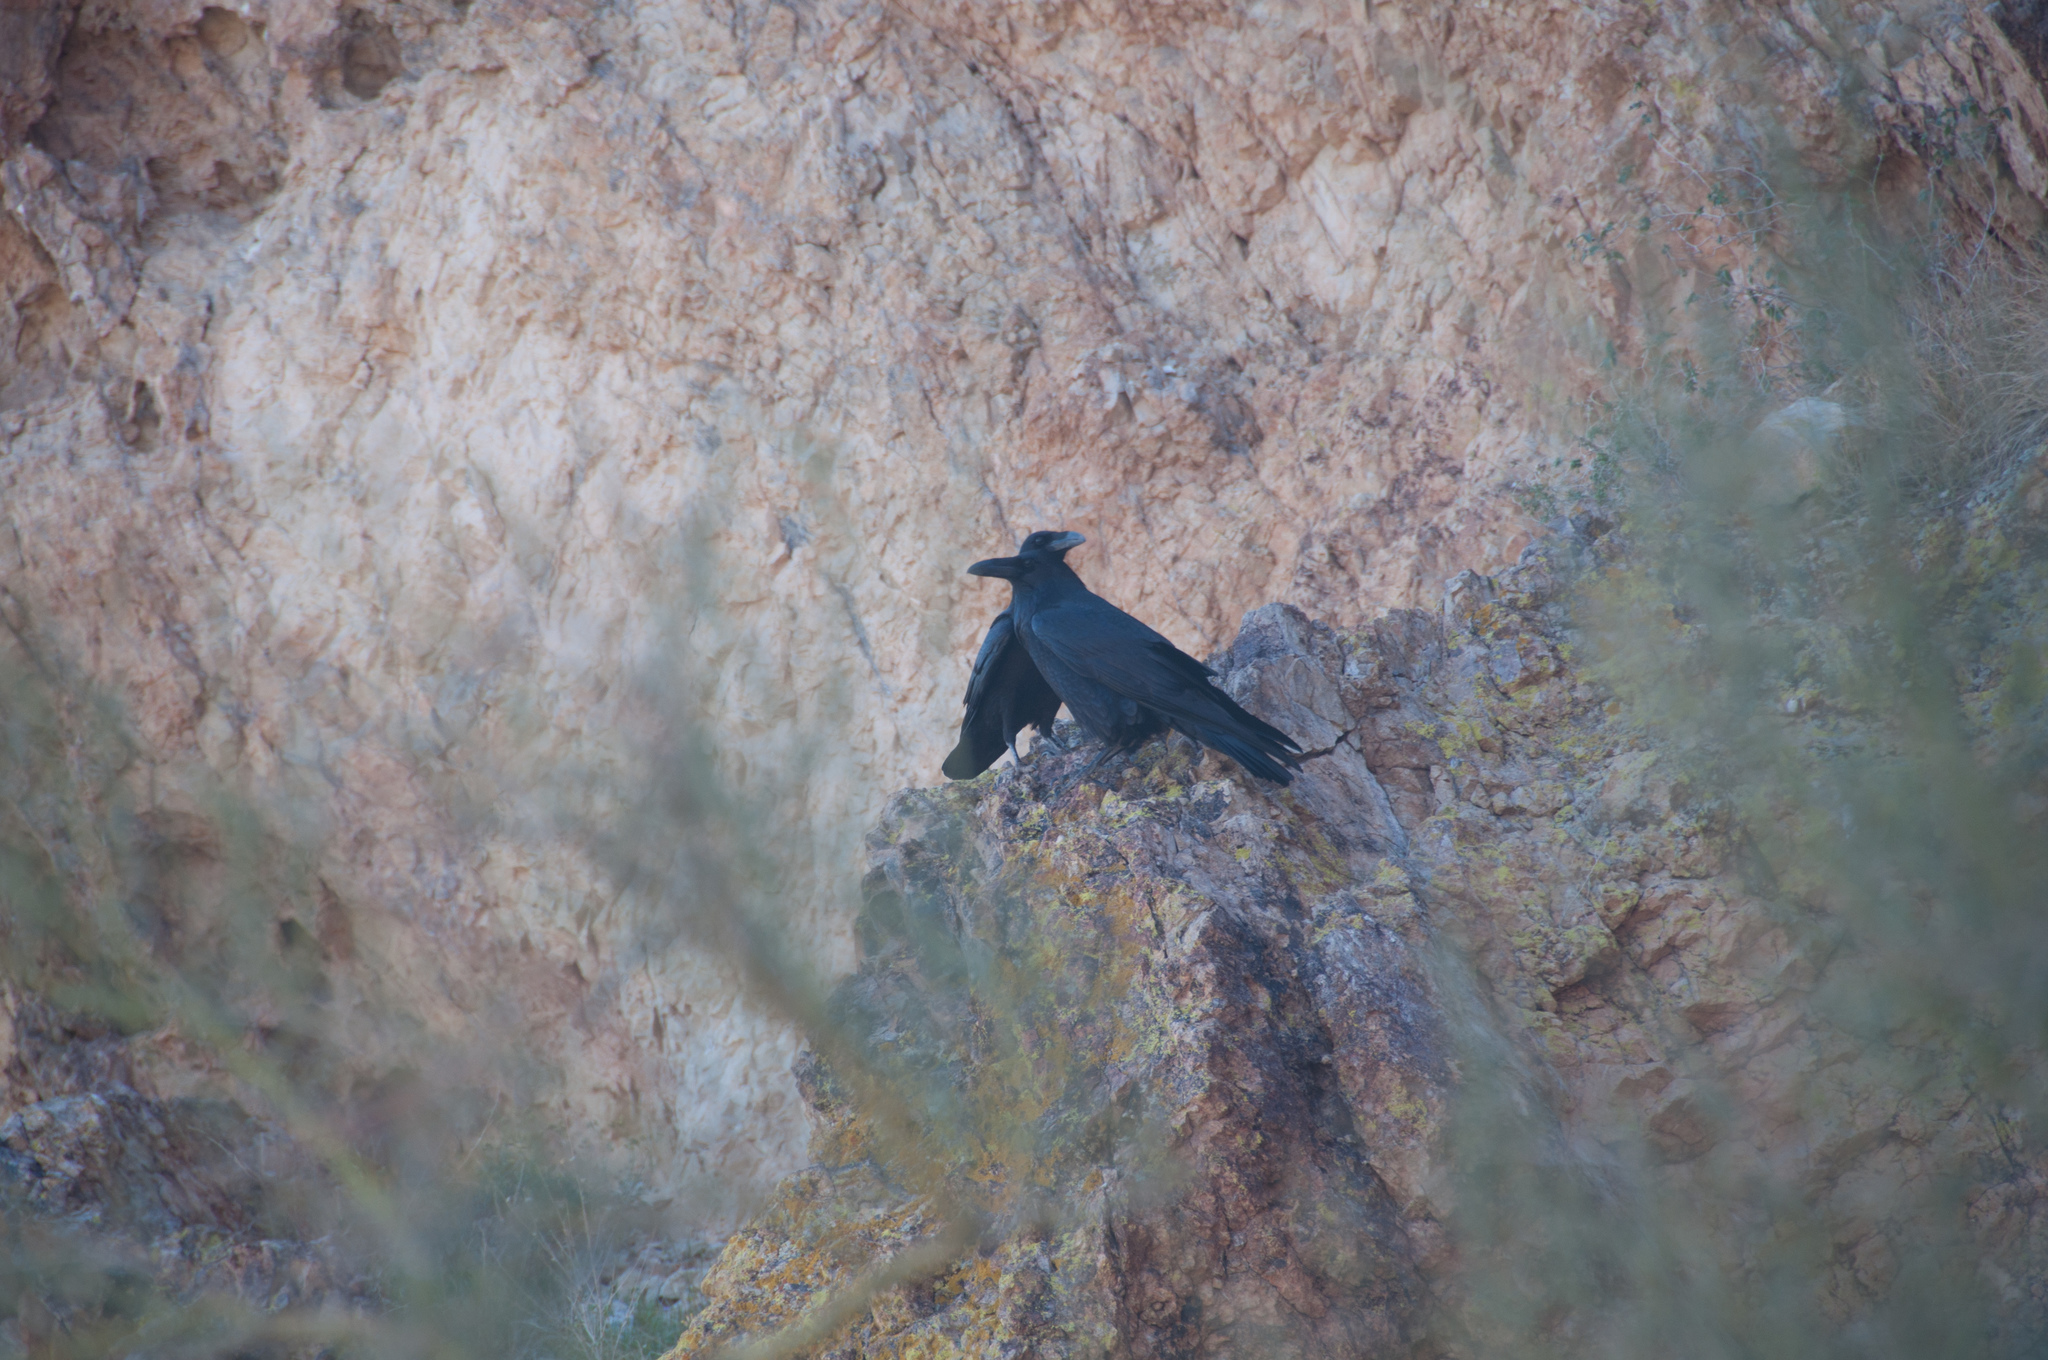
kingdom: Animalia
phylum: Chordata
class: Aves
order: Passeriformes
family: Corvidae
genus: Corvus
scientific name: Corvus corax
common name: Common raven
